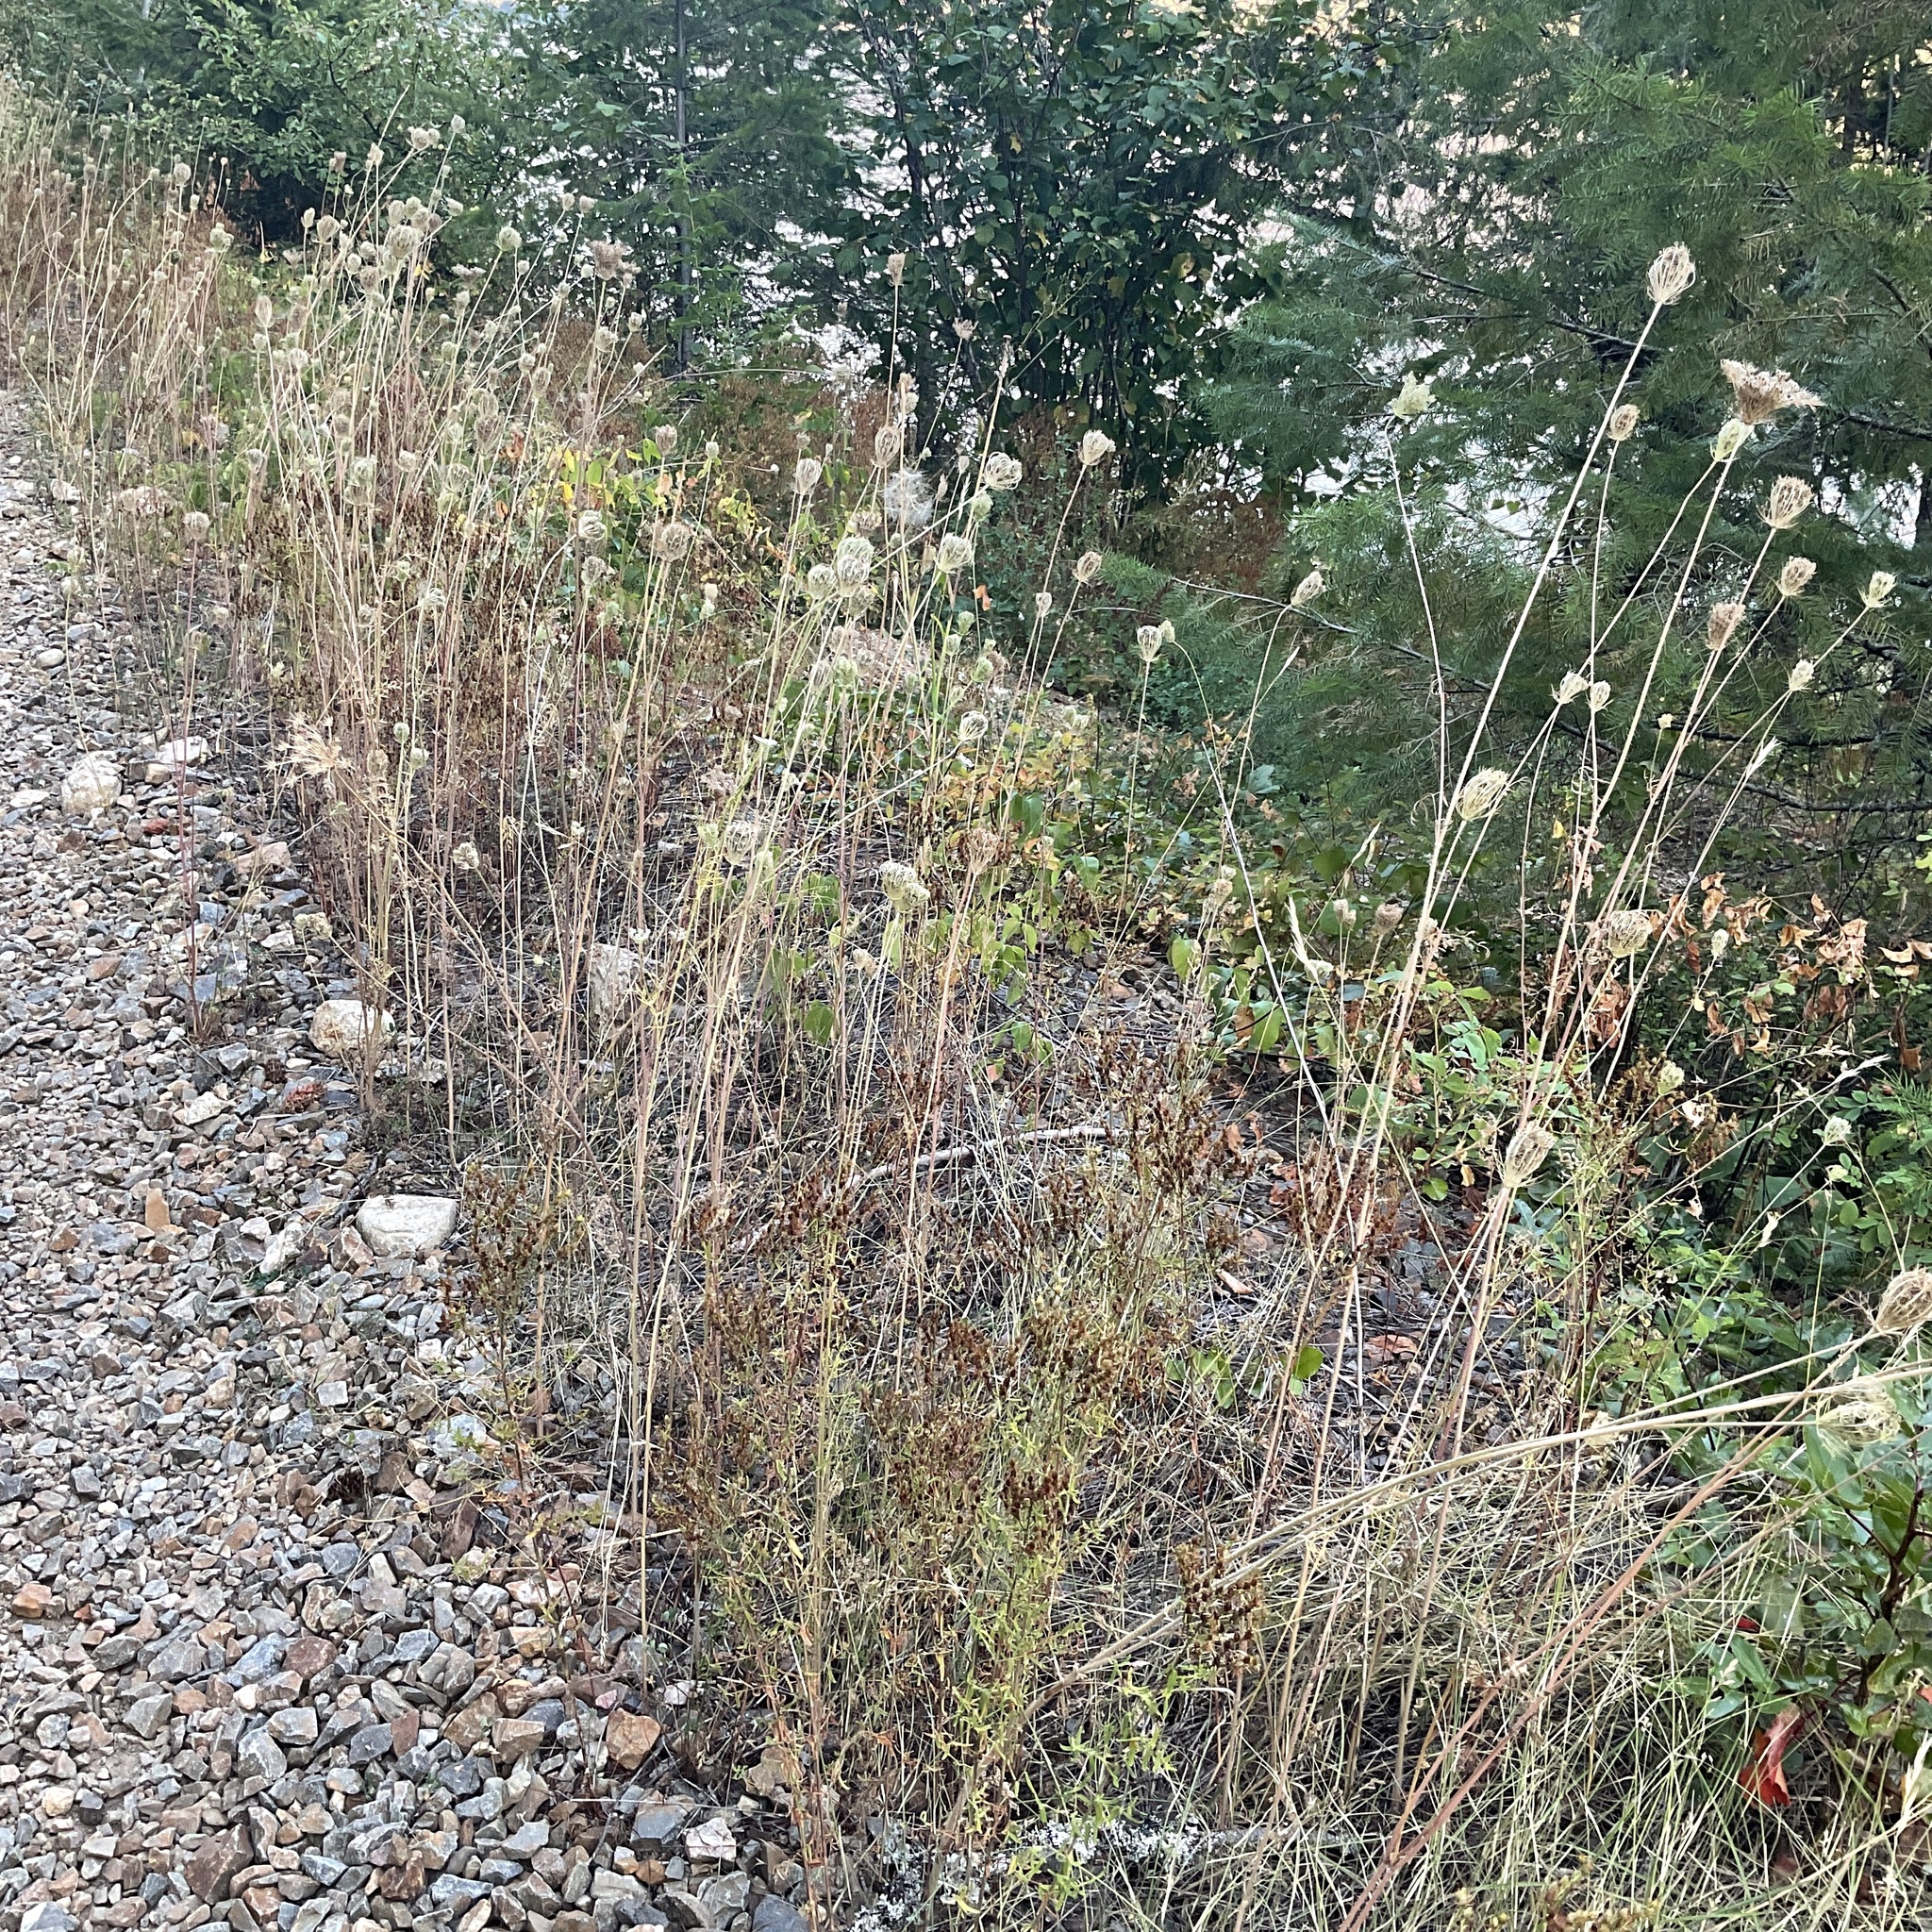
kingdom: Plantae
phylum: Tracheophyta
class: Magnoliopsida
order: Apiales
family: Apiaceae
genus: Daucus
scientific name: Daucus carota
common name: Wild carrot
